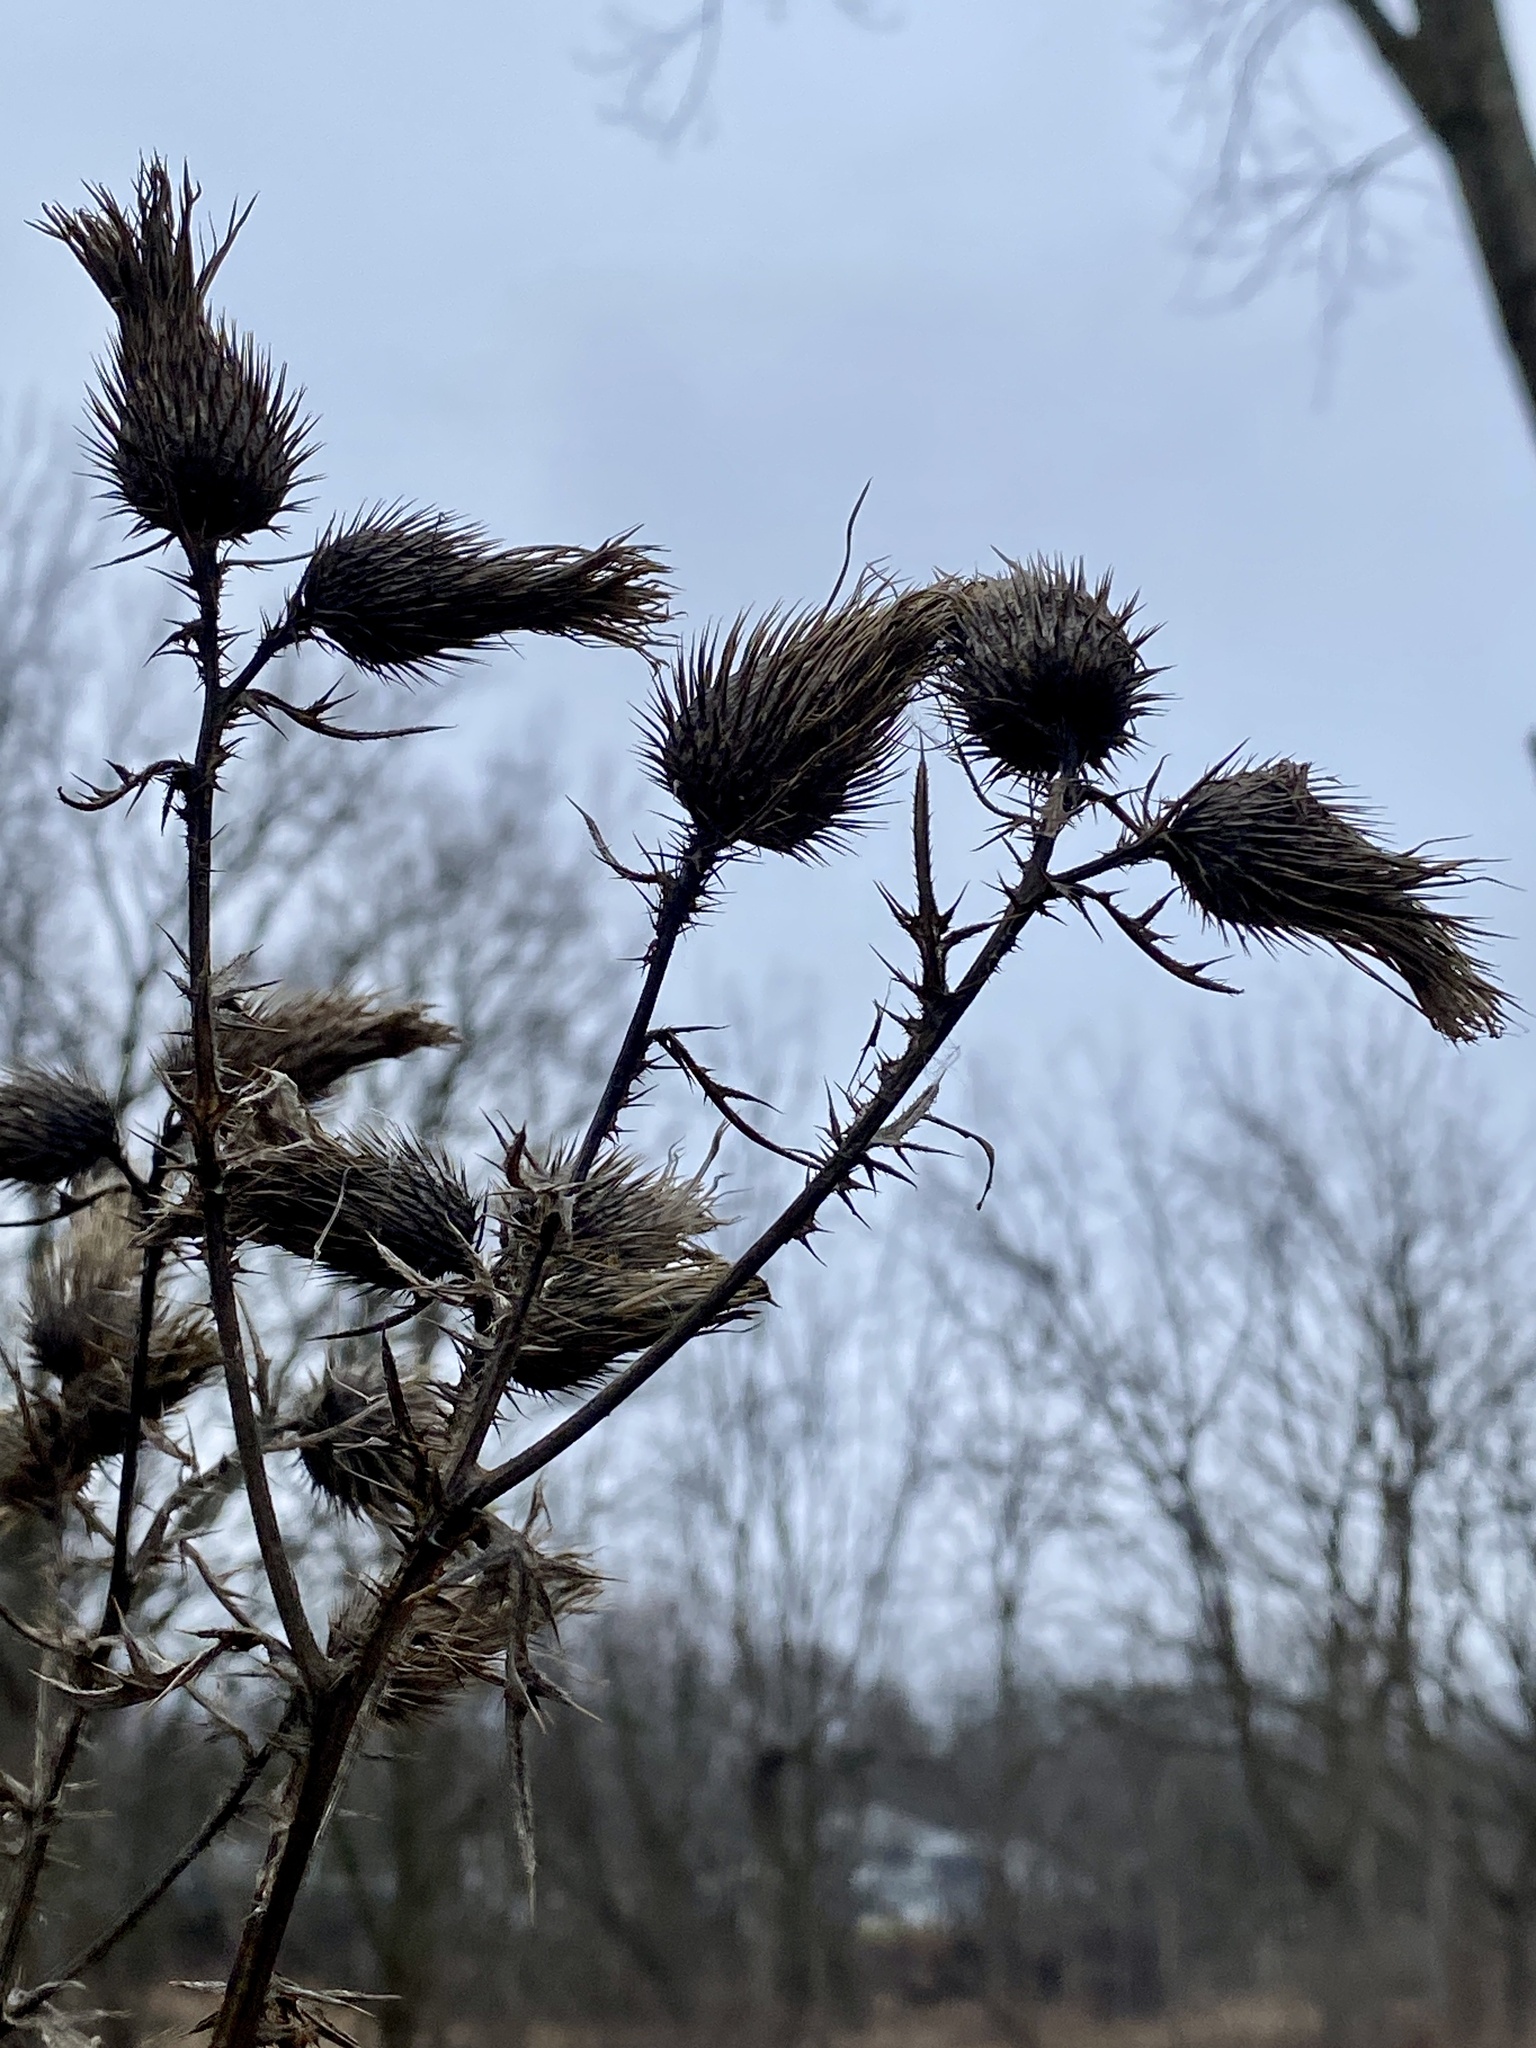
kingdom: Plantae
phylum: Tracheophyta
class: Magnoliopsida
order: Asterales
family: Asteraceae
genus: Cirsium
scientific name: Cirsium vulgare
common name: Bull thistle
